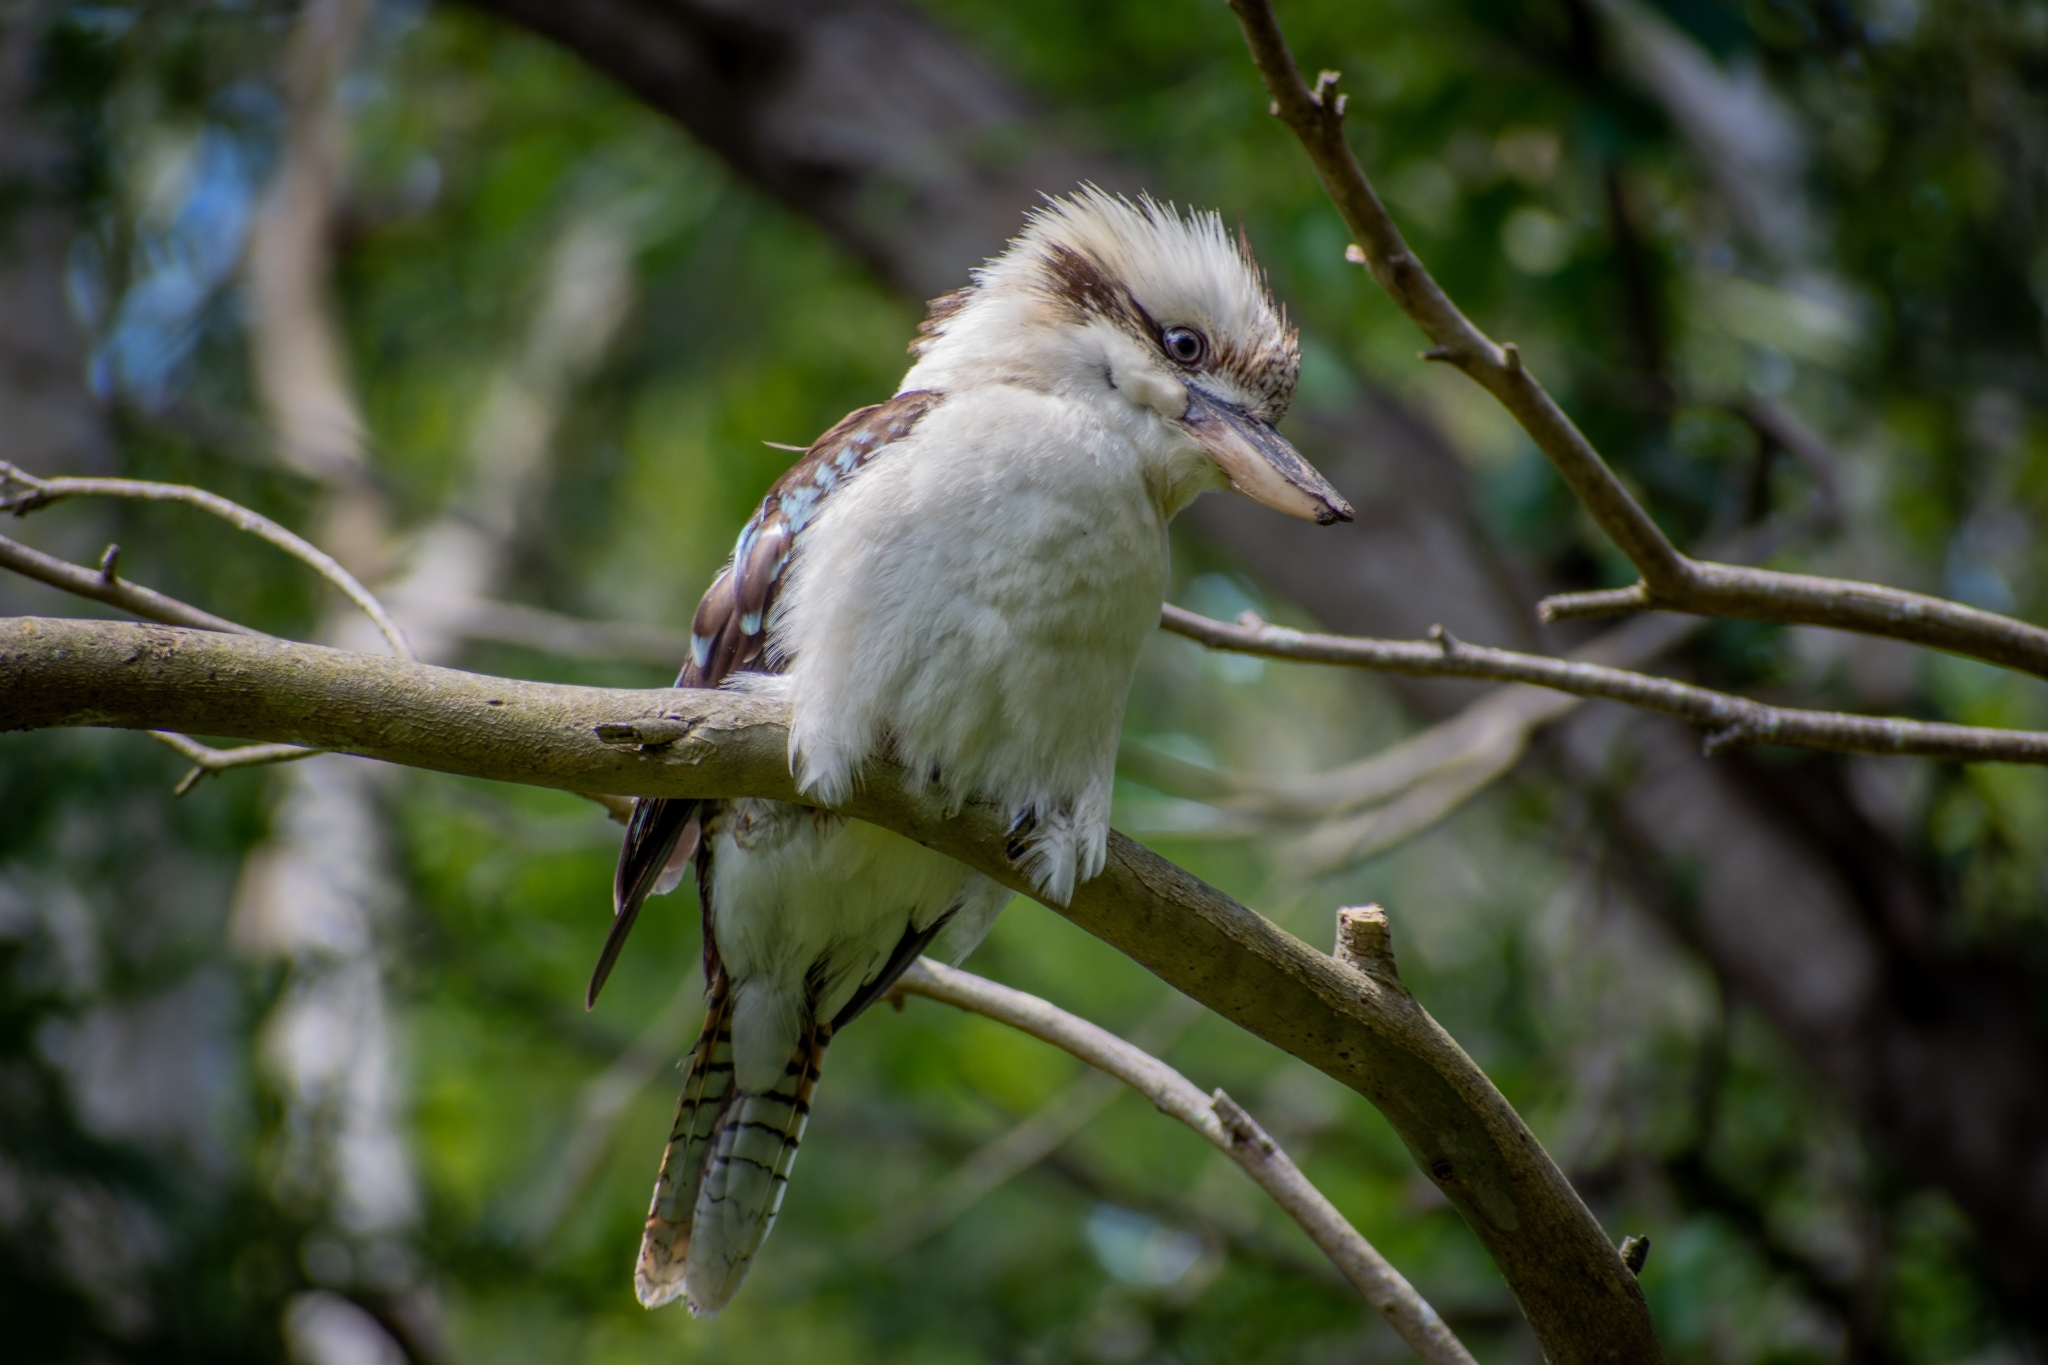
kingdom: Animalia
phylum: Chordata
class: Aves
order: Coraciiformes
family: Alcedinidae
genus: Dacelo
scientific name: Dacelo novaeguineae
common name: Laughing kookaburra
